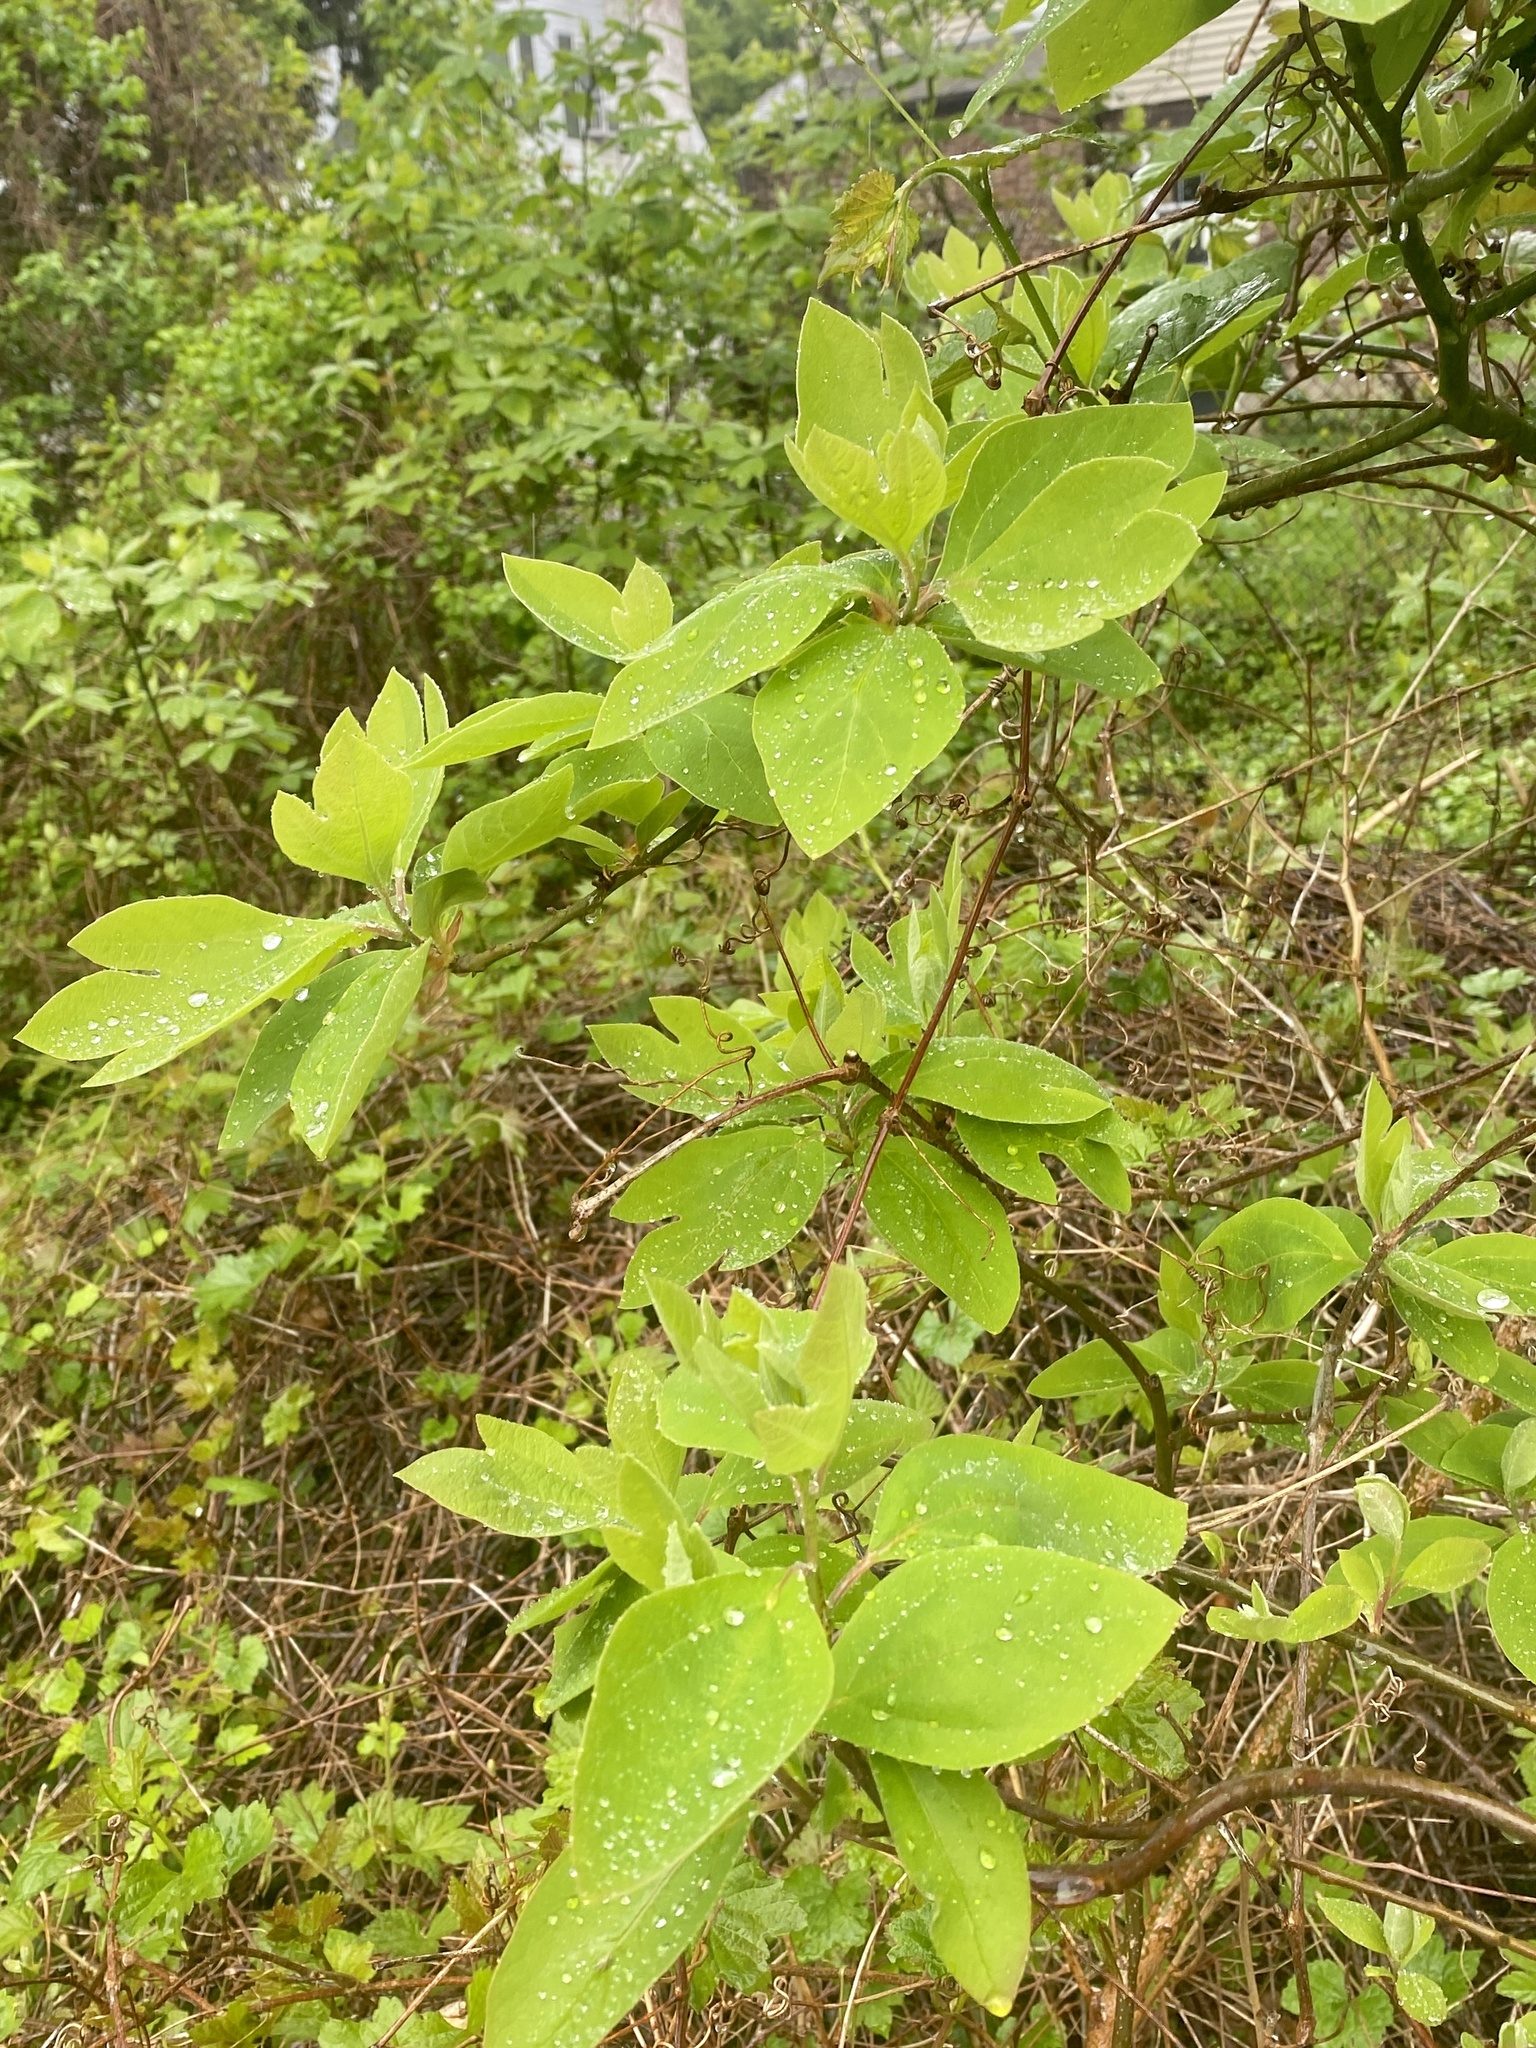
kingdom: Plantae
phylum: Tracheophyta
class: Magnoliopsida
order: Laurales
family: Lauraceae
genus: Sassafras
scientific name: Sassafras albidum
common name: Sassafras
